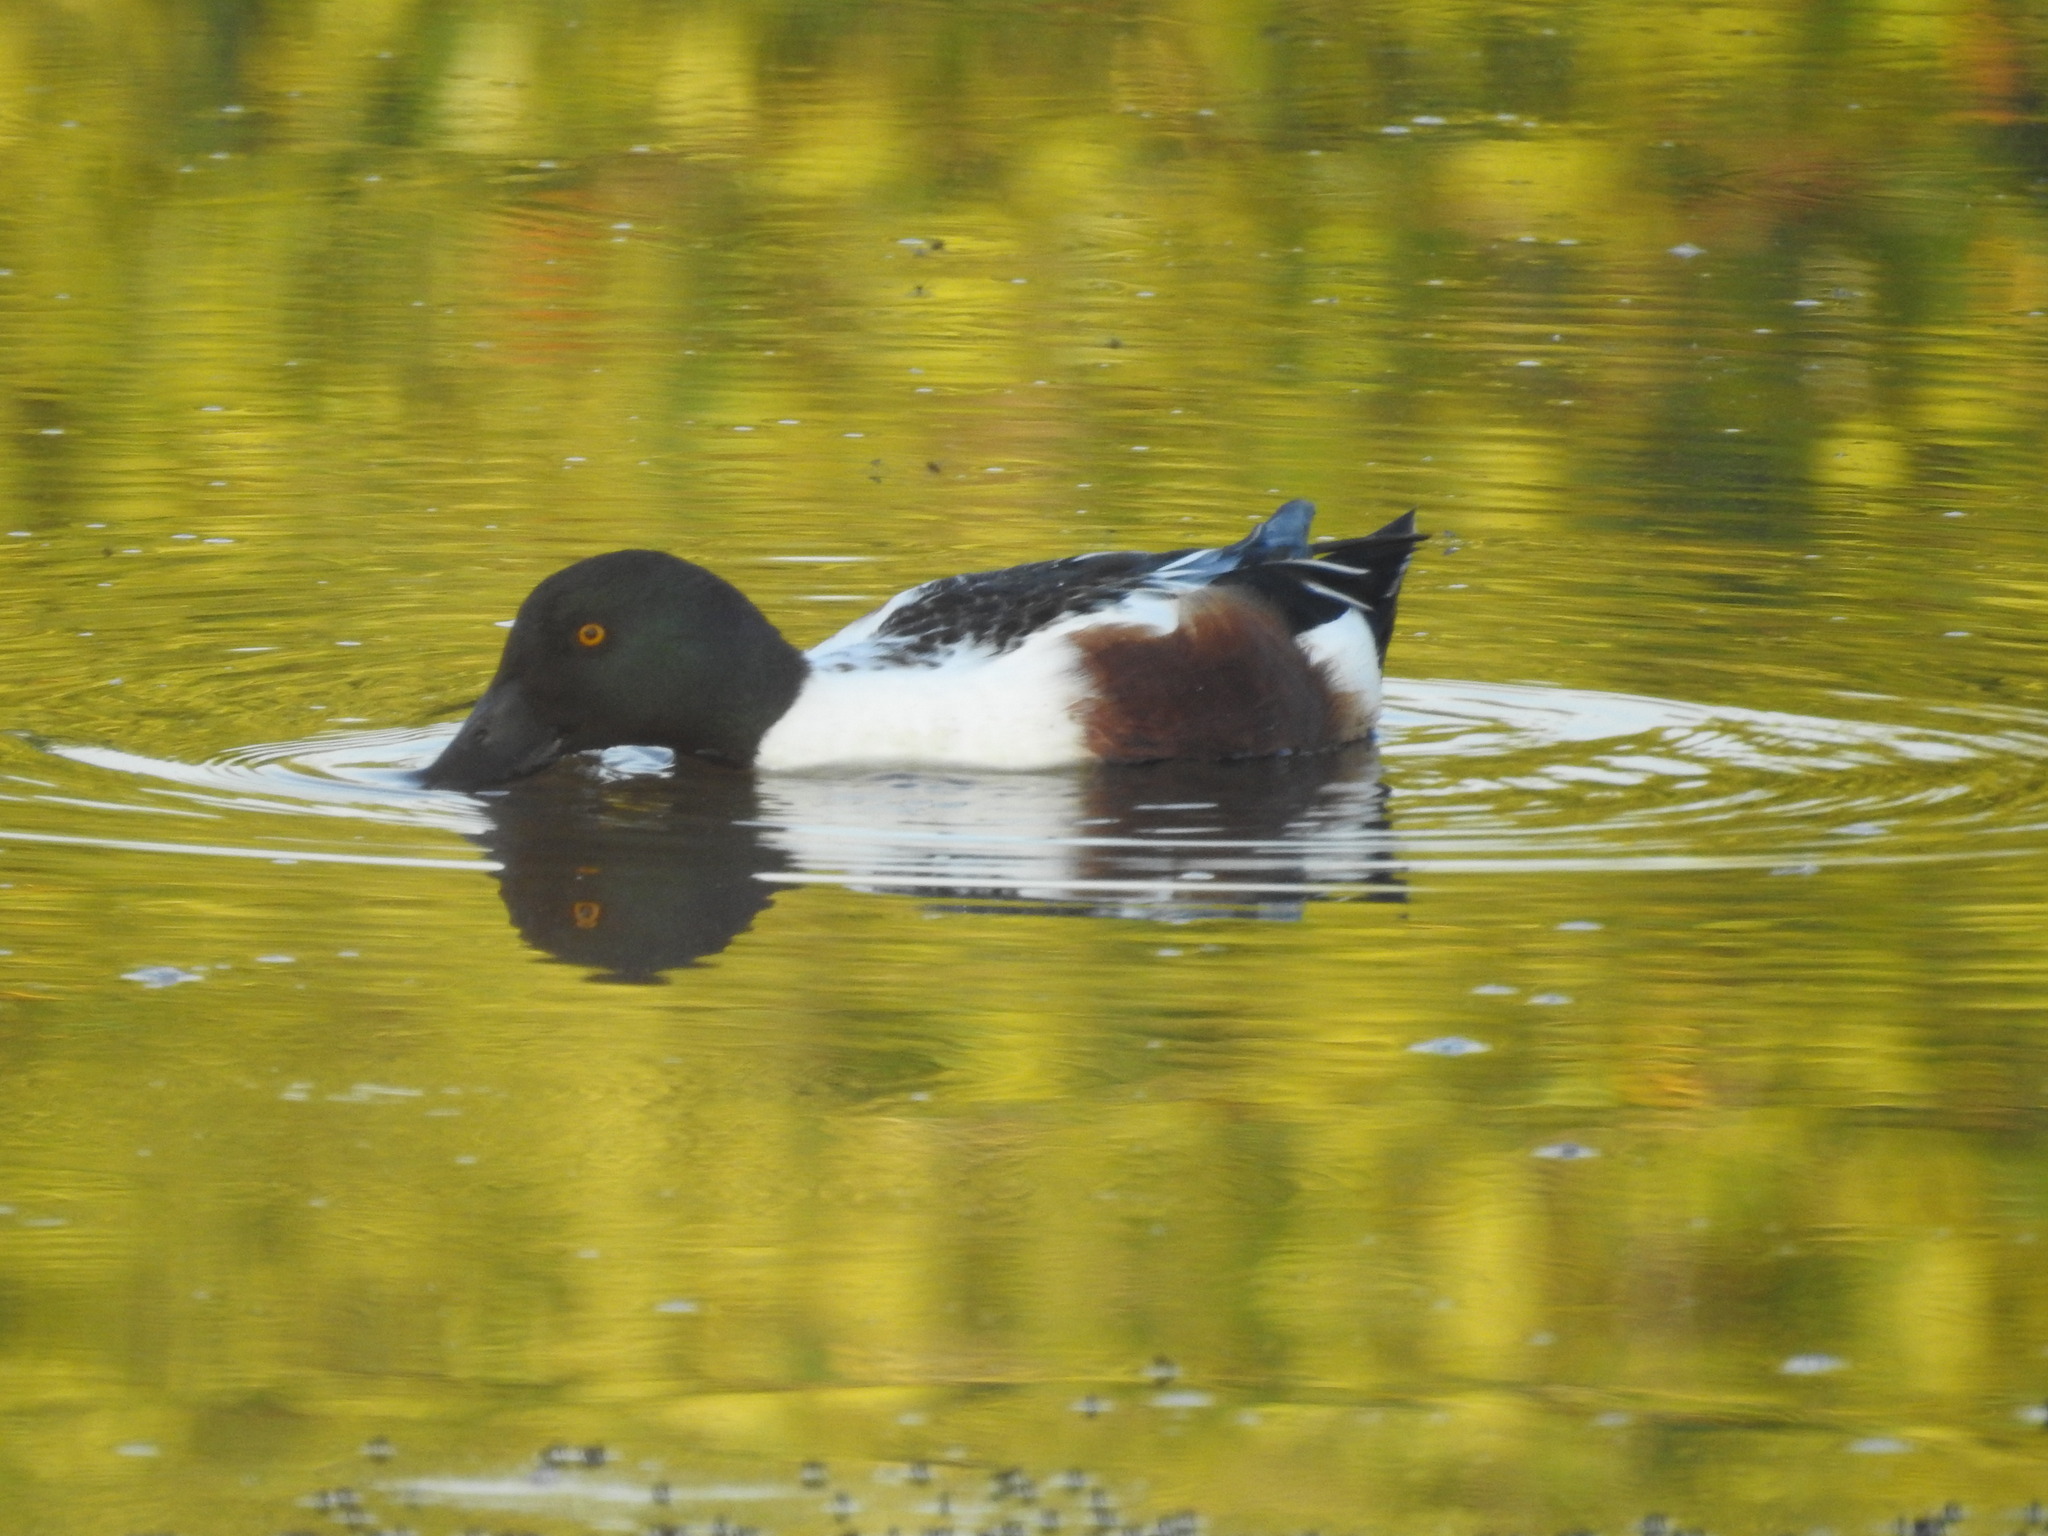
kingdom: Animalia
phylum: Chordata
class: Aves
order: Anseriformes
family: Anatidae
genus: Spatula
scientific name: Spatula clypeata
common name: Northern shoveler
